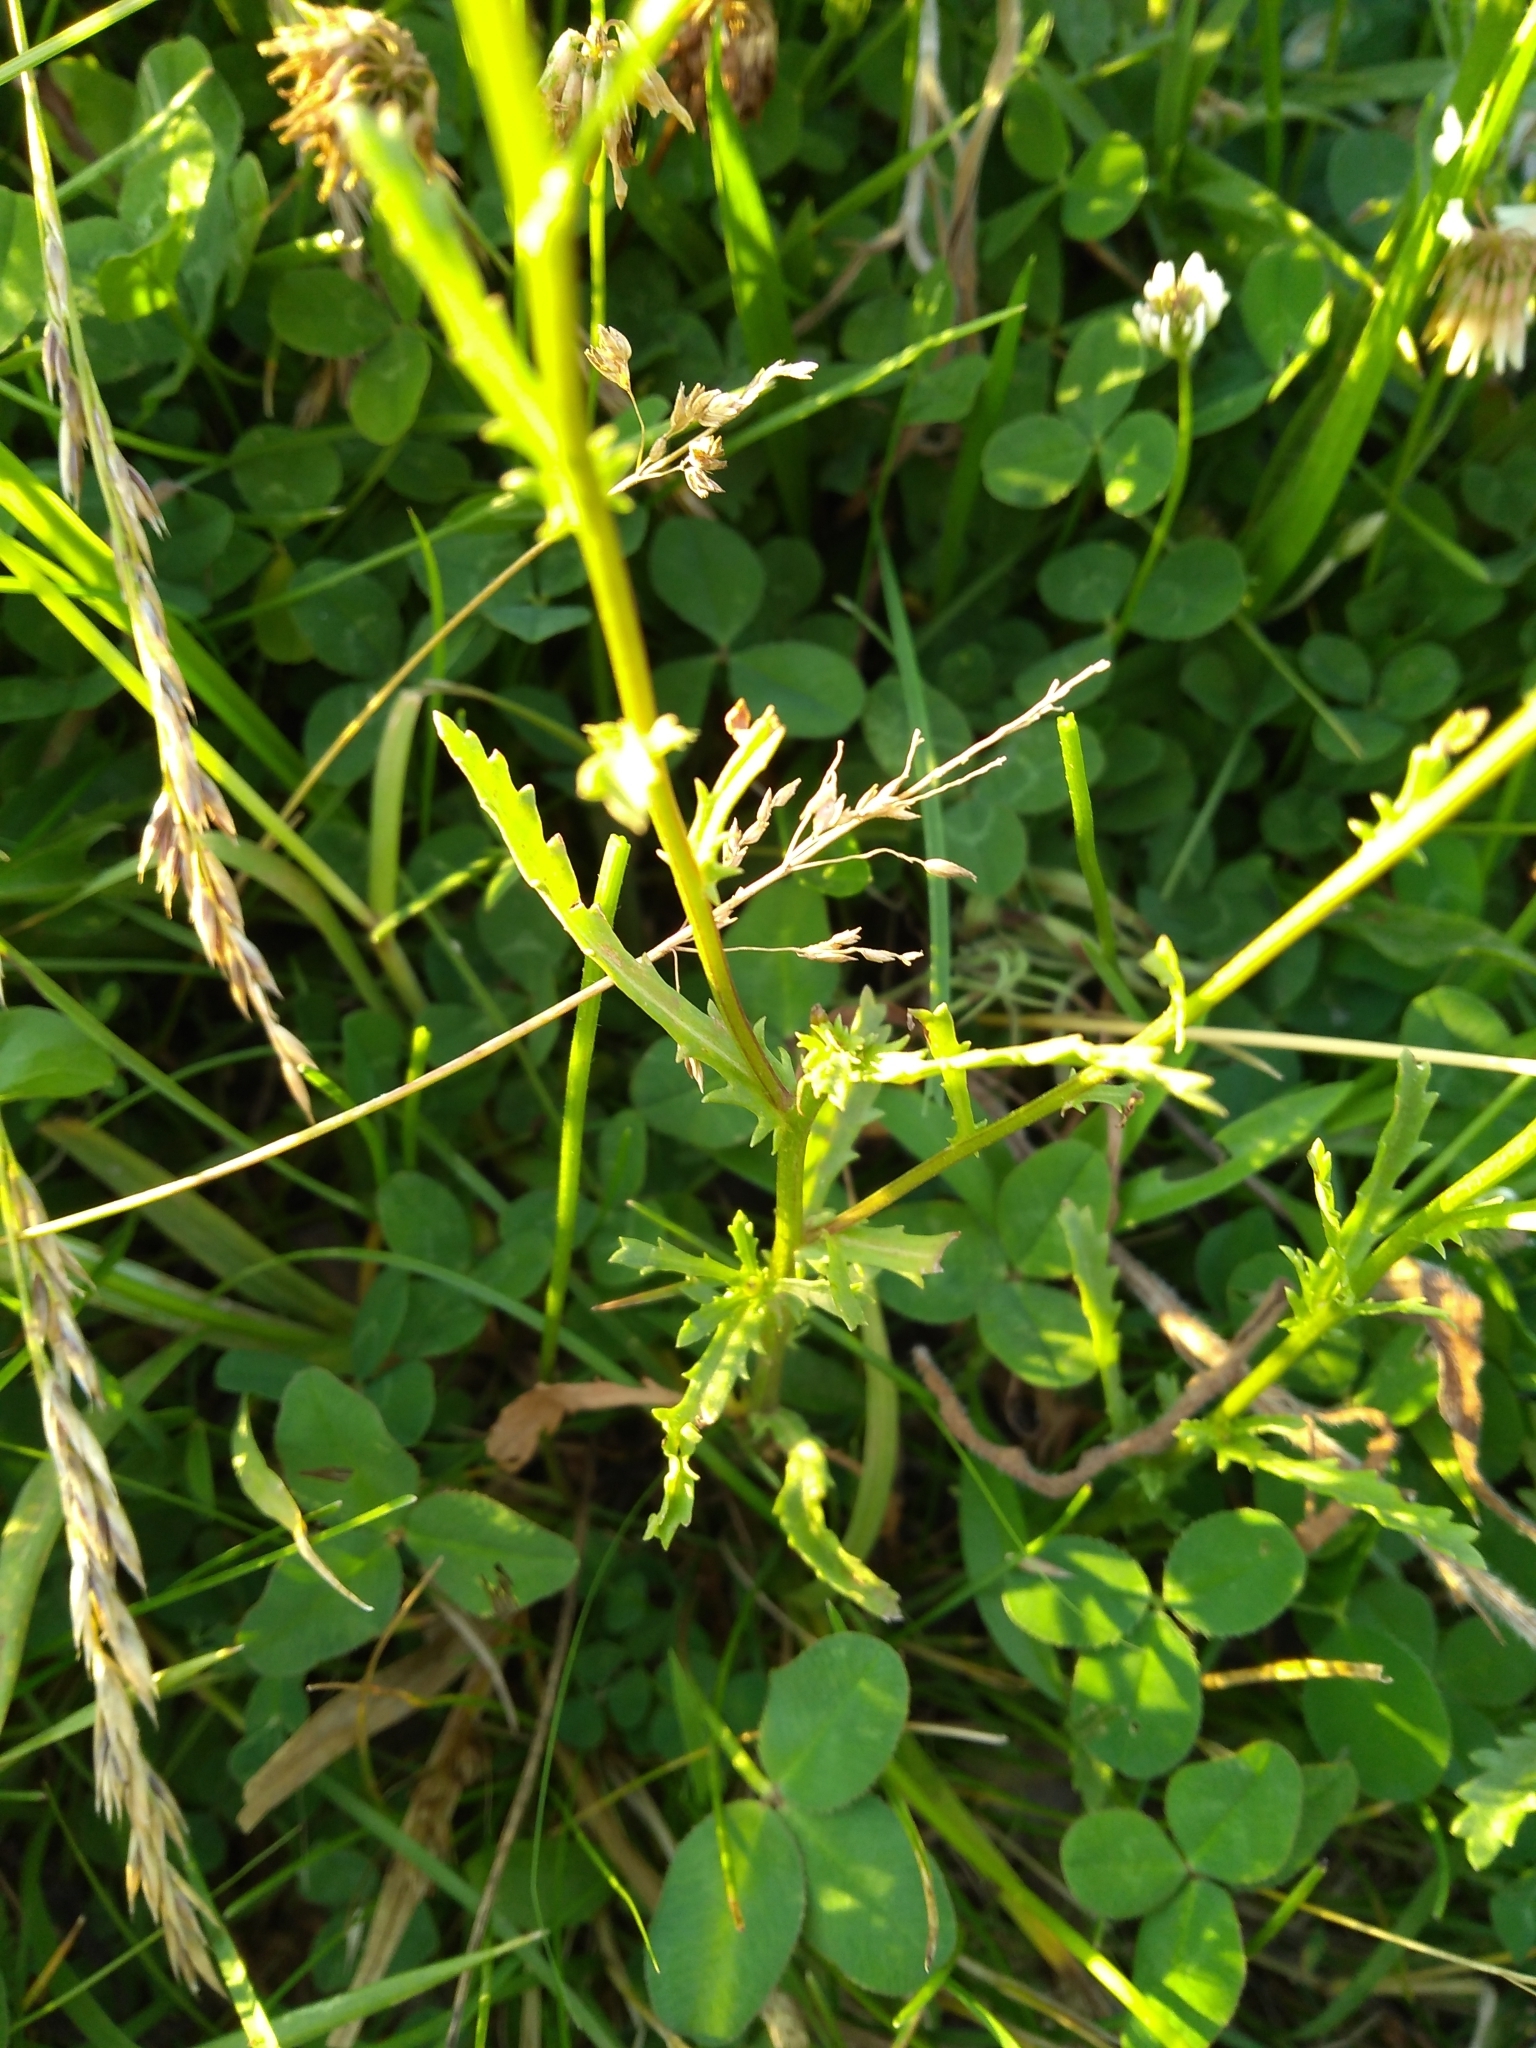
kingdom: Plantae
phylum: Tracheophyta
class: Magnoliopsida
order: Asterales
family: Asteraceae
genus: Leucanthemum
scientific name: Leucanthemum vulgare
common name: Oxeye daisy
